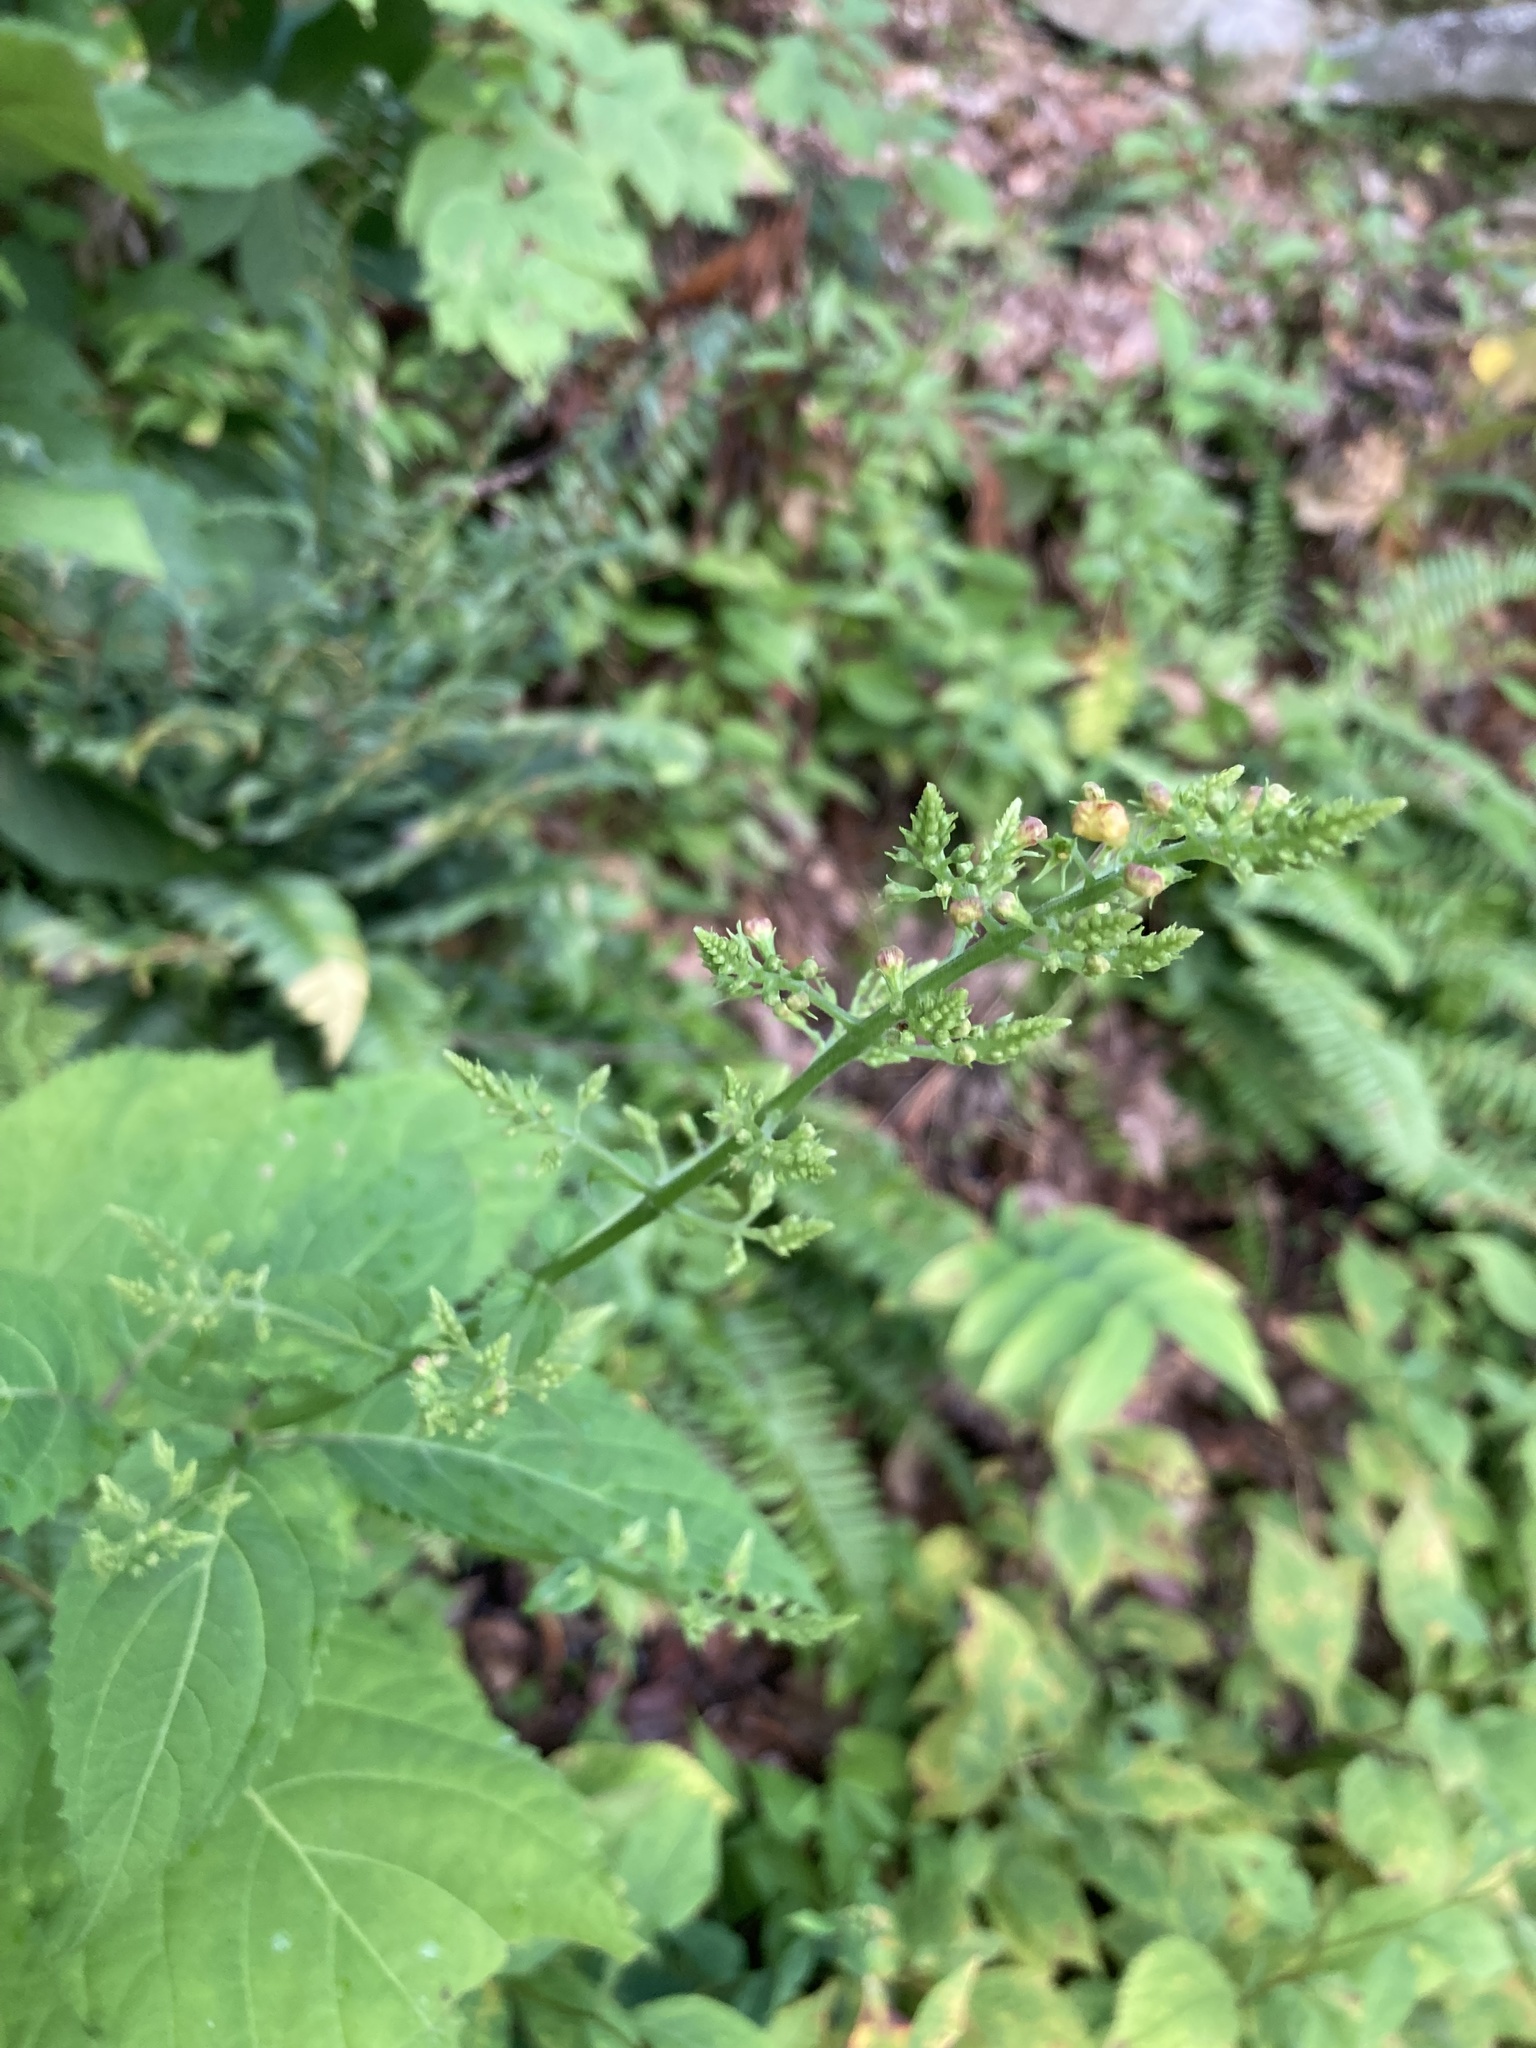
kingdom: Plantae
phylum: Tracheophyta
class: Magnoliopsida
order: Lamiales
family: Lamiaceae
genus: Collinsonia
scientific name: Collinsonia canadensis
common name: Northern horsebalm
